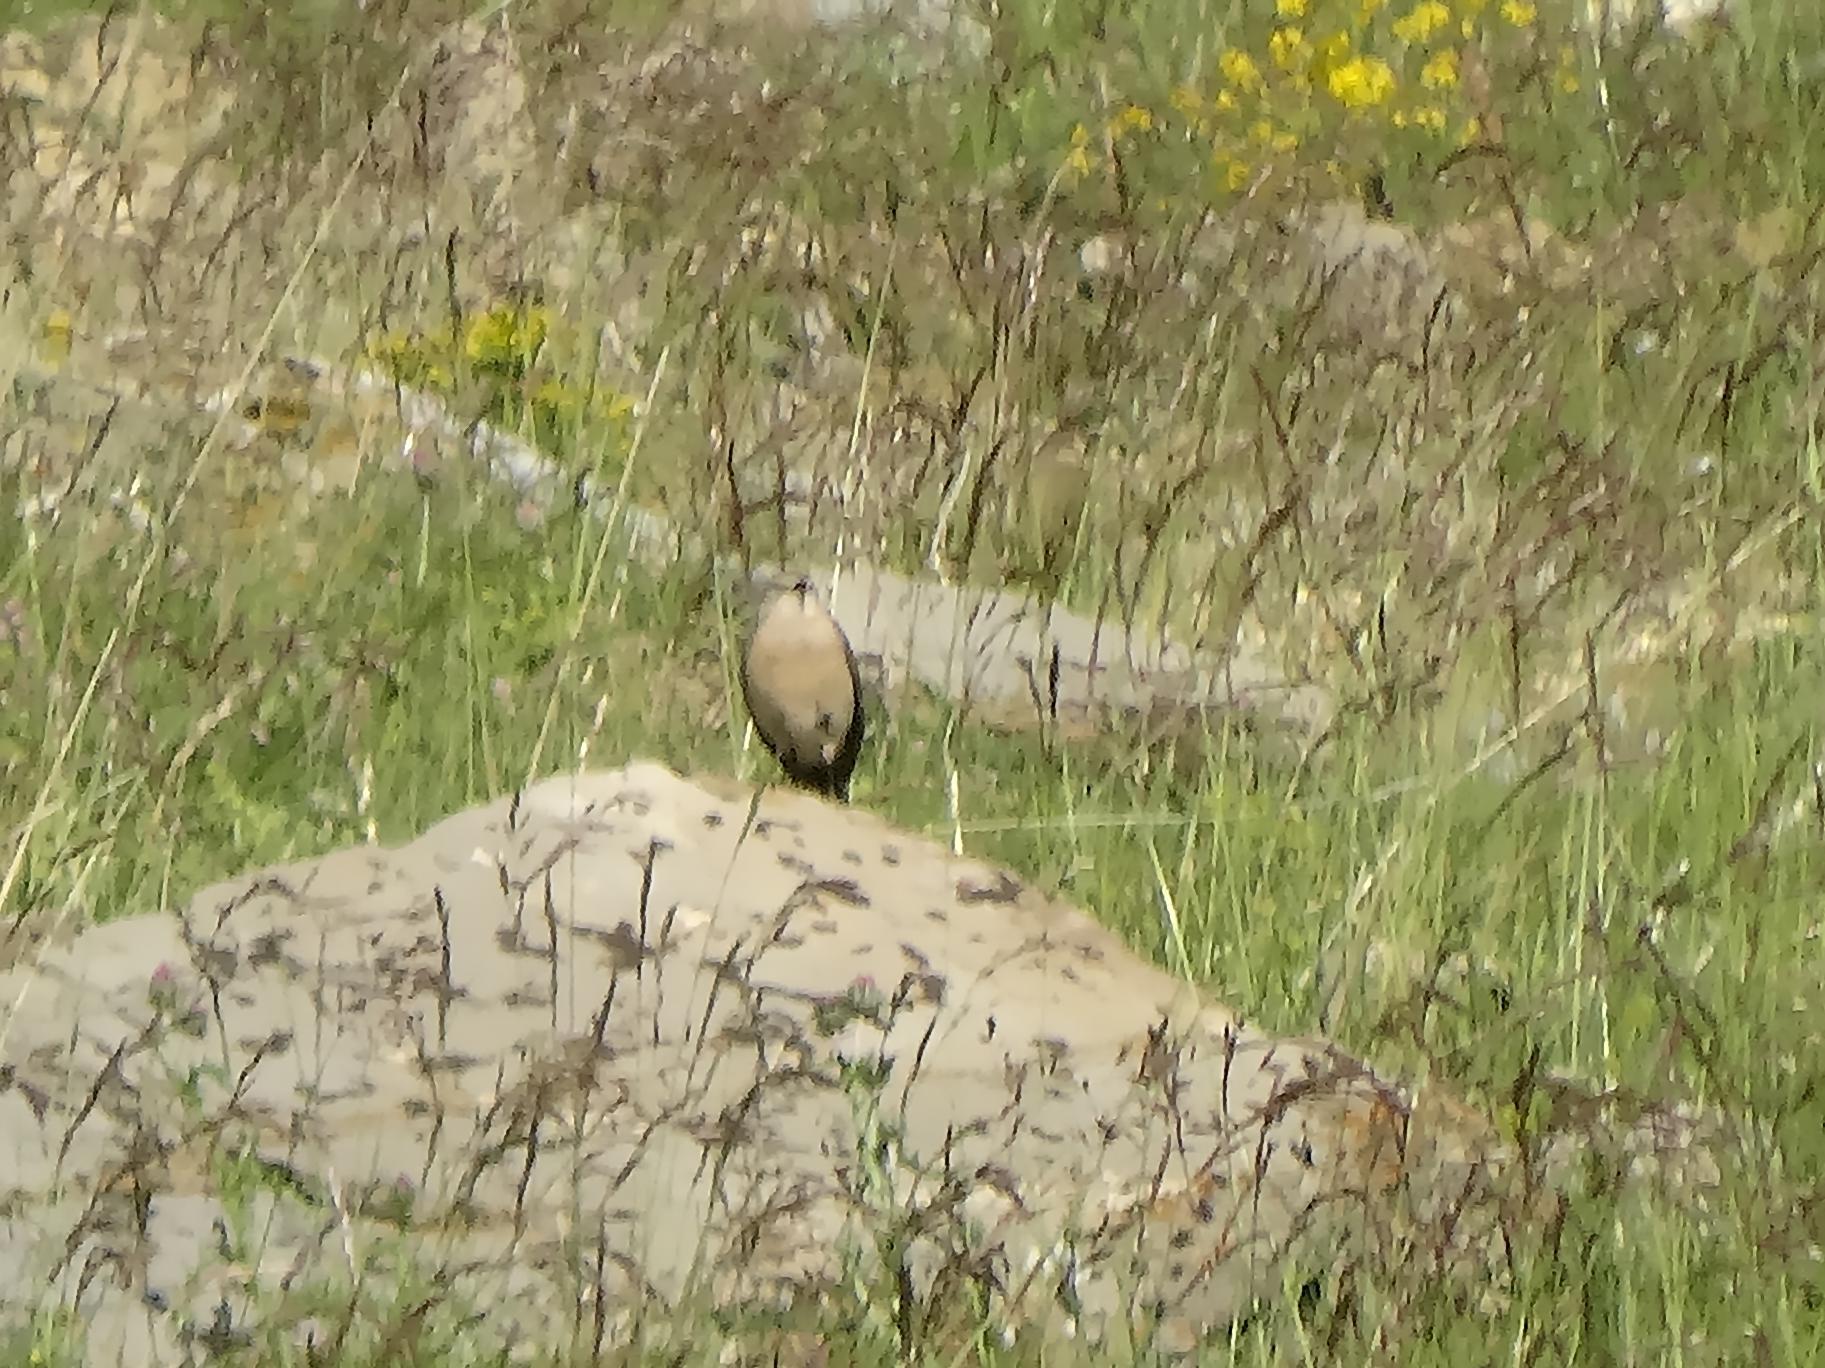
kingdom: Animalia
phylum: Chordata
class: Aves
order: Passeriformes
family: Motacillidae
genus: Anthus
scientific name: Anthus spinoletta
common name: Water pipit
